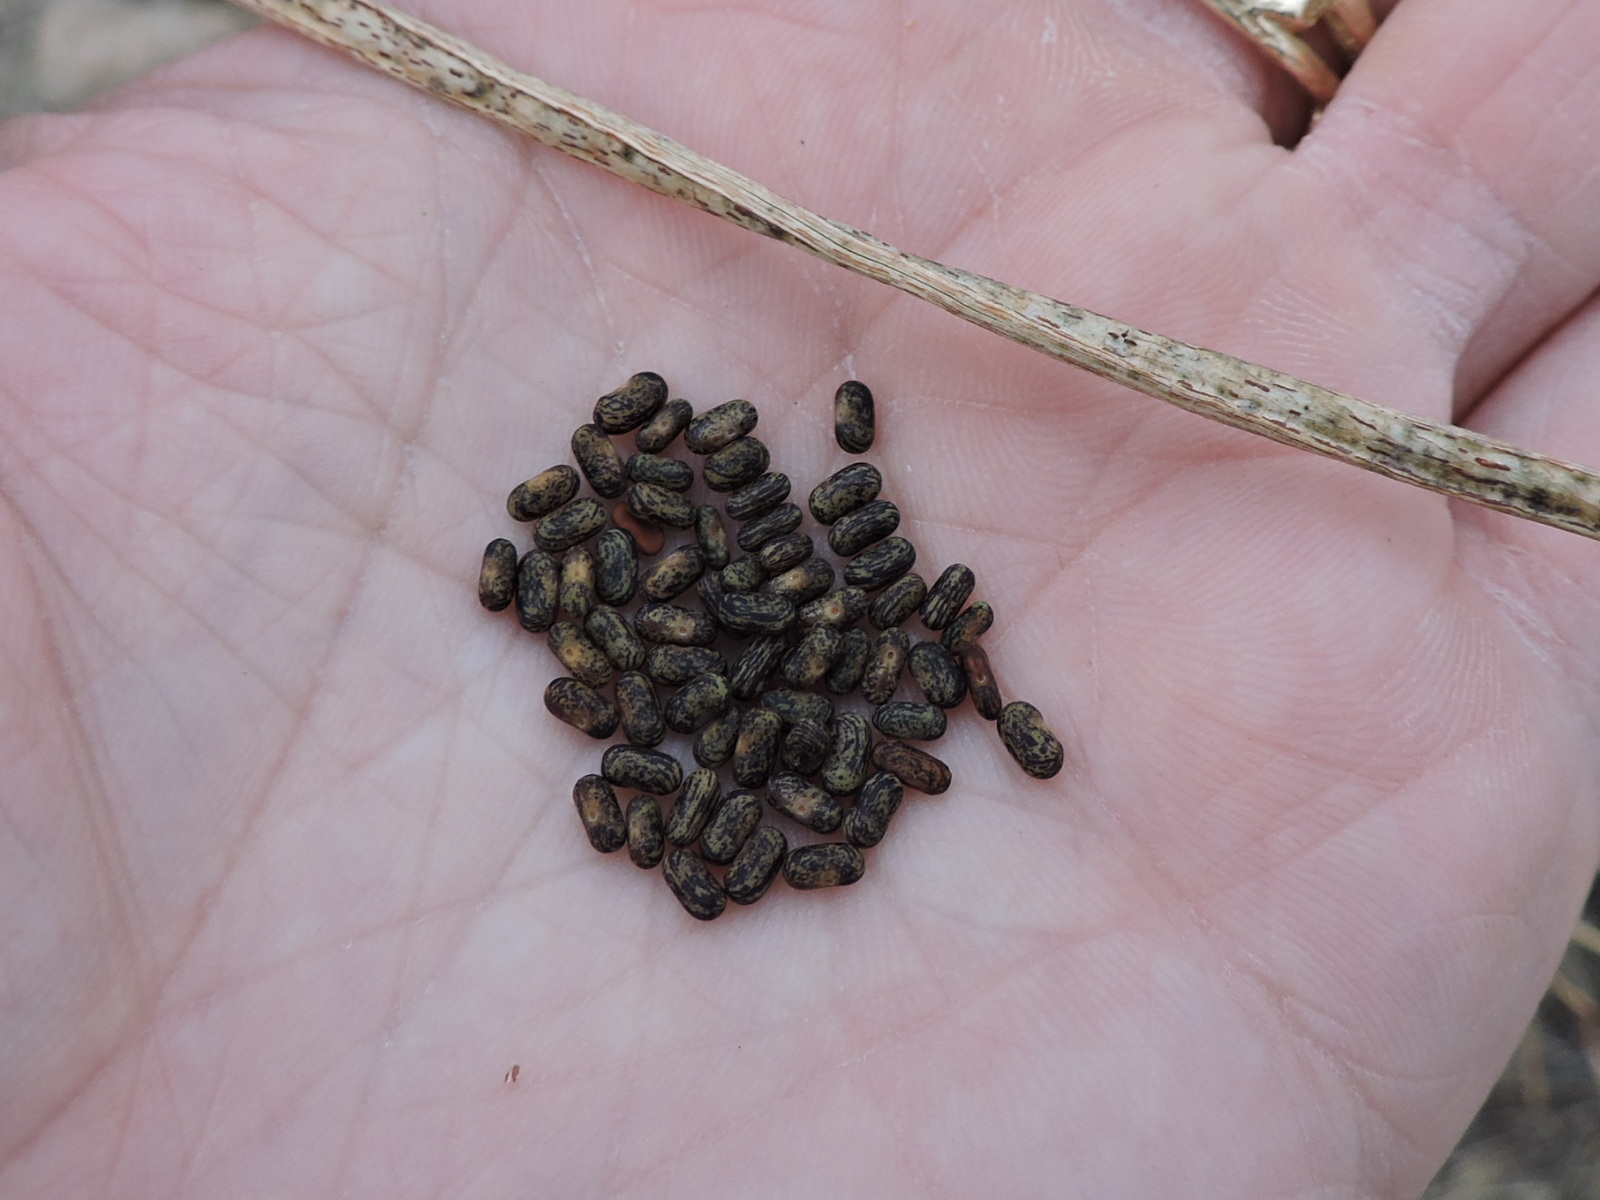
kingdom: Plantae
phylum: Tracheophyta
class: Magnoliopsida
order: Fabales
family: Fabaceae
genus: Sesbania
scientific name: Sesbania herbacea
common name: Bigpod sesbania
